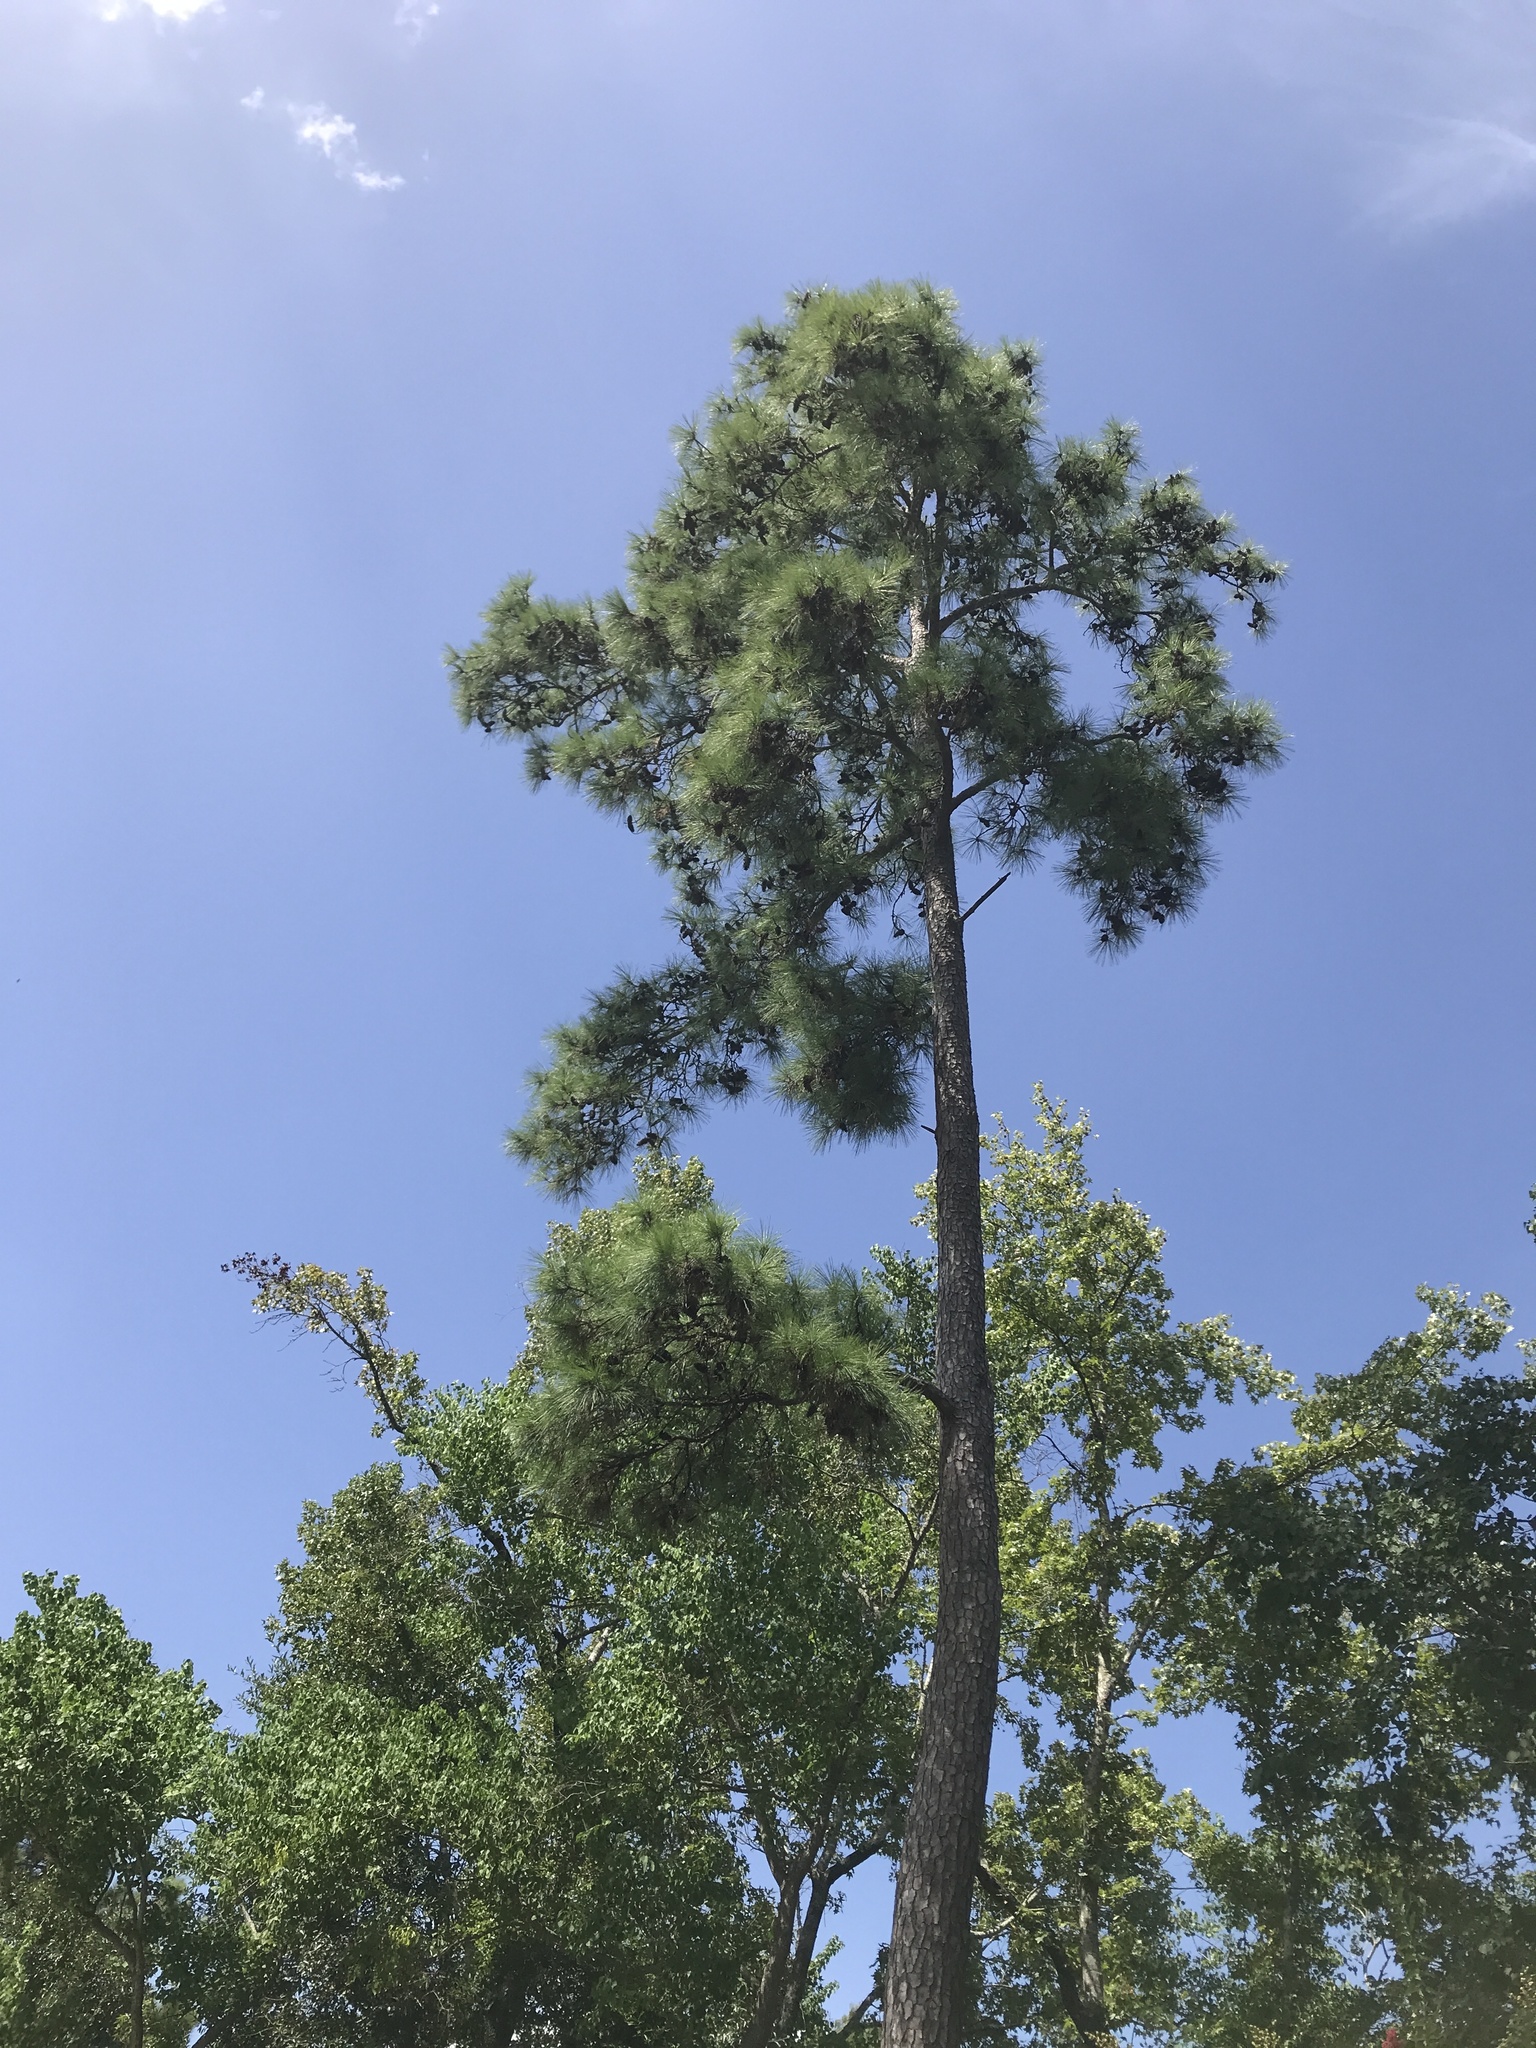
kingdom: Plantae
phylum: Tracheophyta
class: Pinopsida
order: Pinales
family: Pinaceae
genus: Pinus
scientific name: Pinus taeda
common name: Loblolly pine
